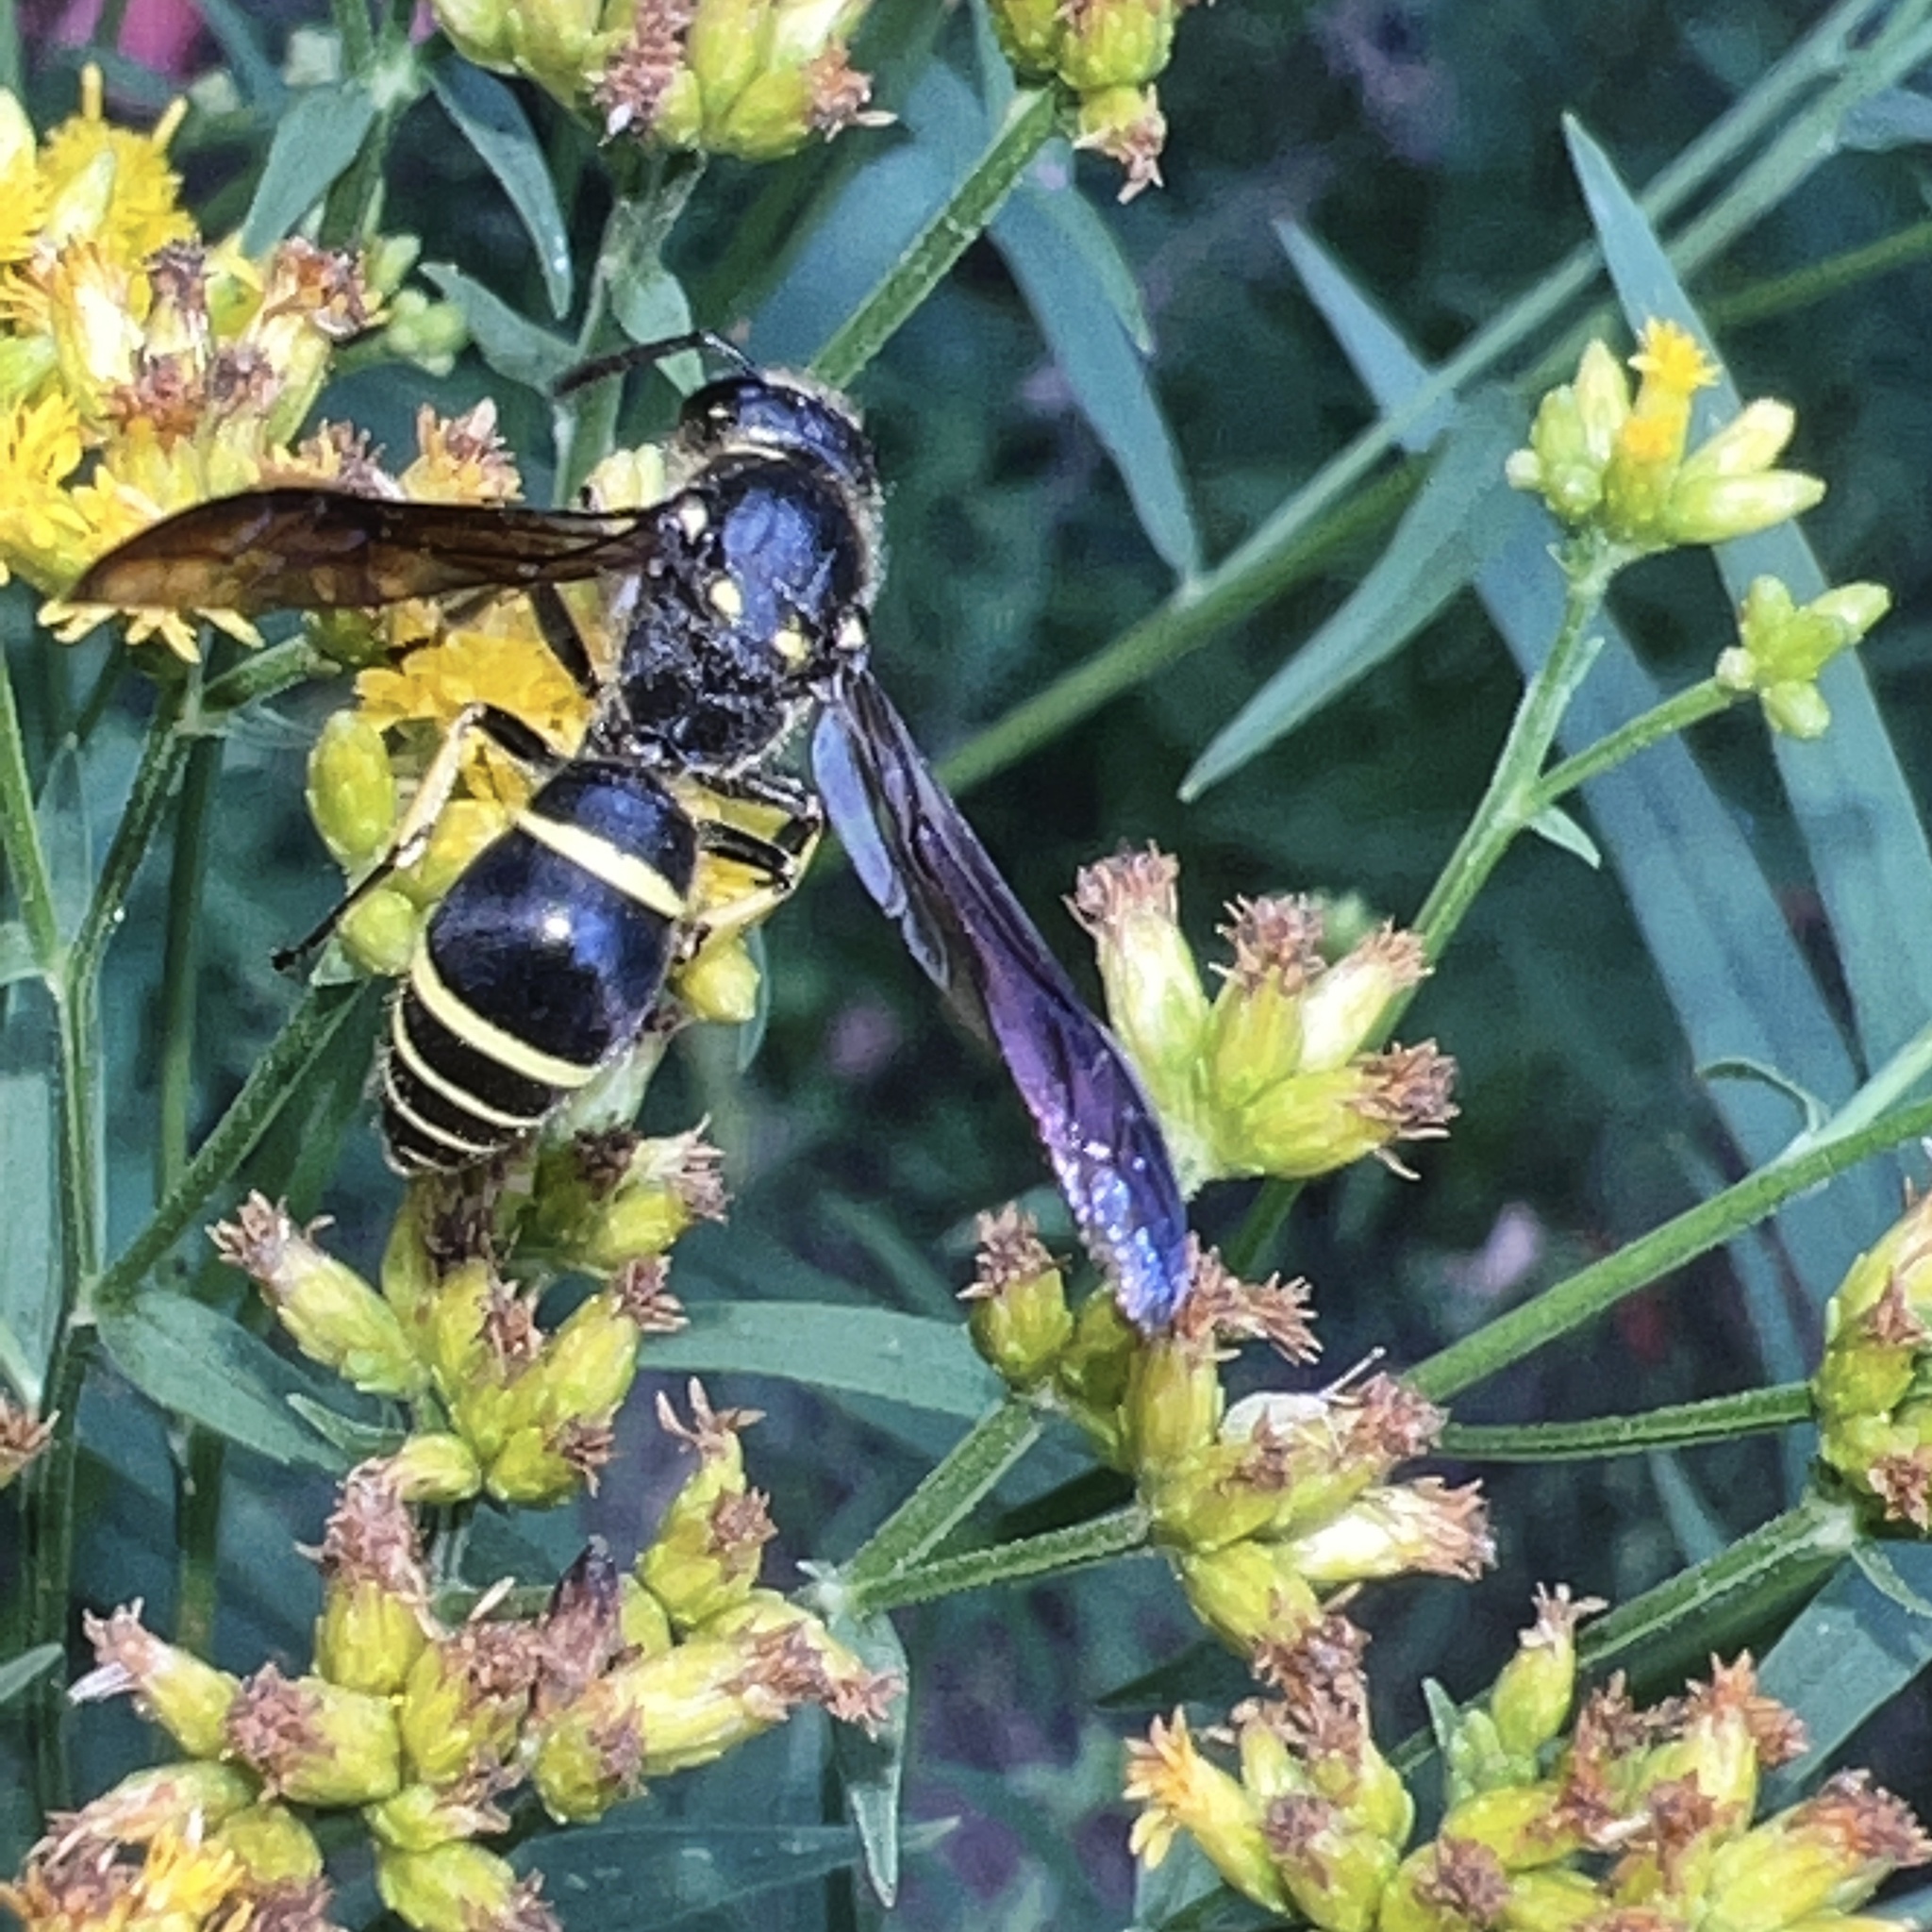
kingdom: Animalia
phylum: Arthropoda
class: Insecta
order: Hymenoptera
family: Vespidae
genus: Ancistrocerus
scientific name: Ancistrocerus
